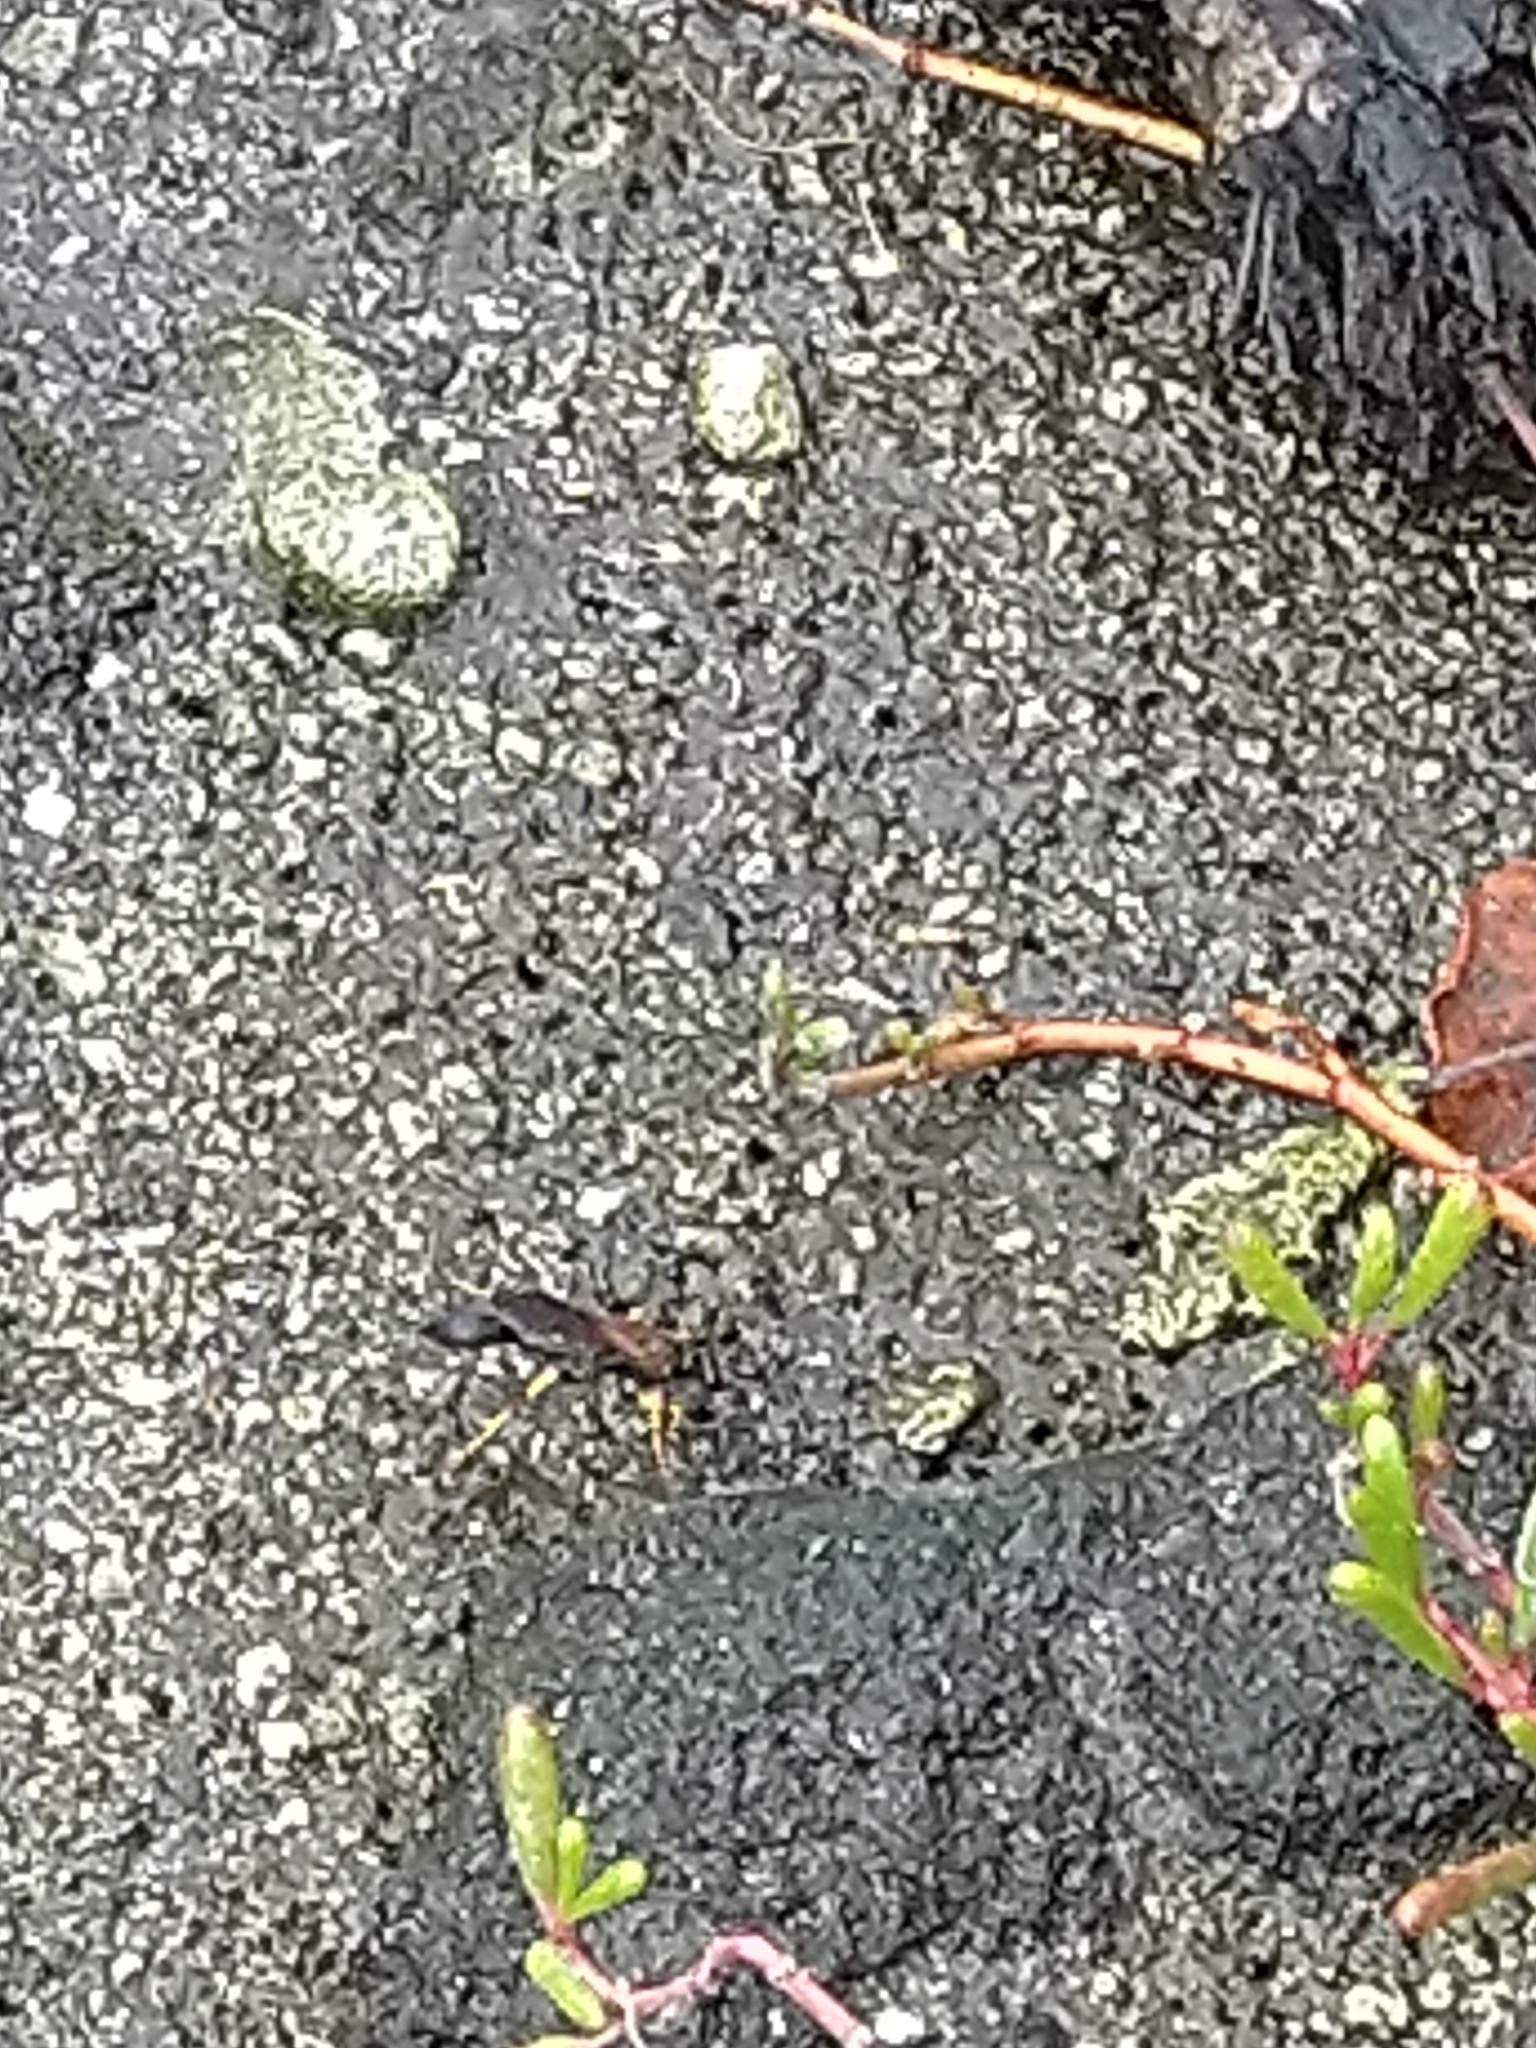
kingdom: Animalia
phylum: Arthropoda
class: Insecta
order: Hymenoptera
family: Sphecidae
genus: Sceliphron
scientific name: Sceliphron caementarium
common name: Mud dauber
